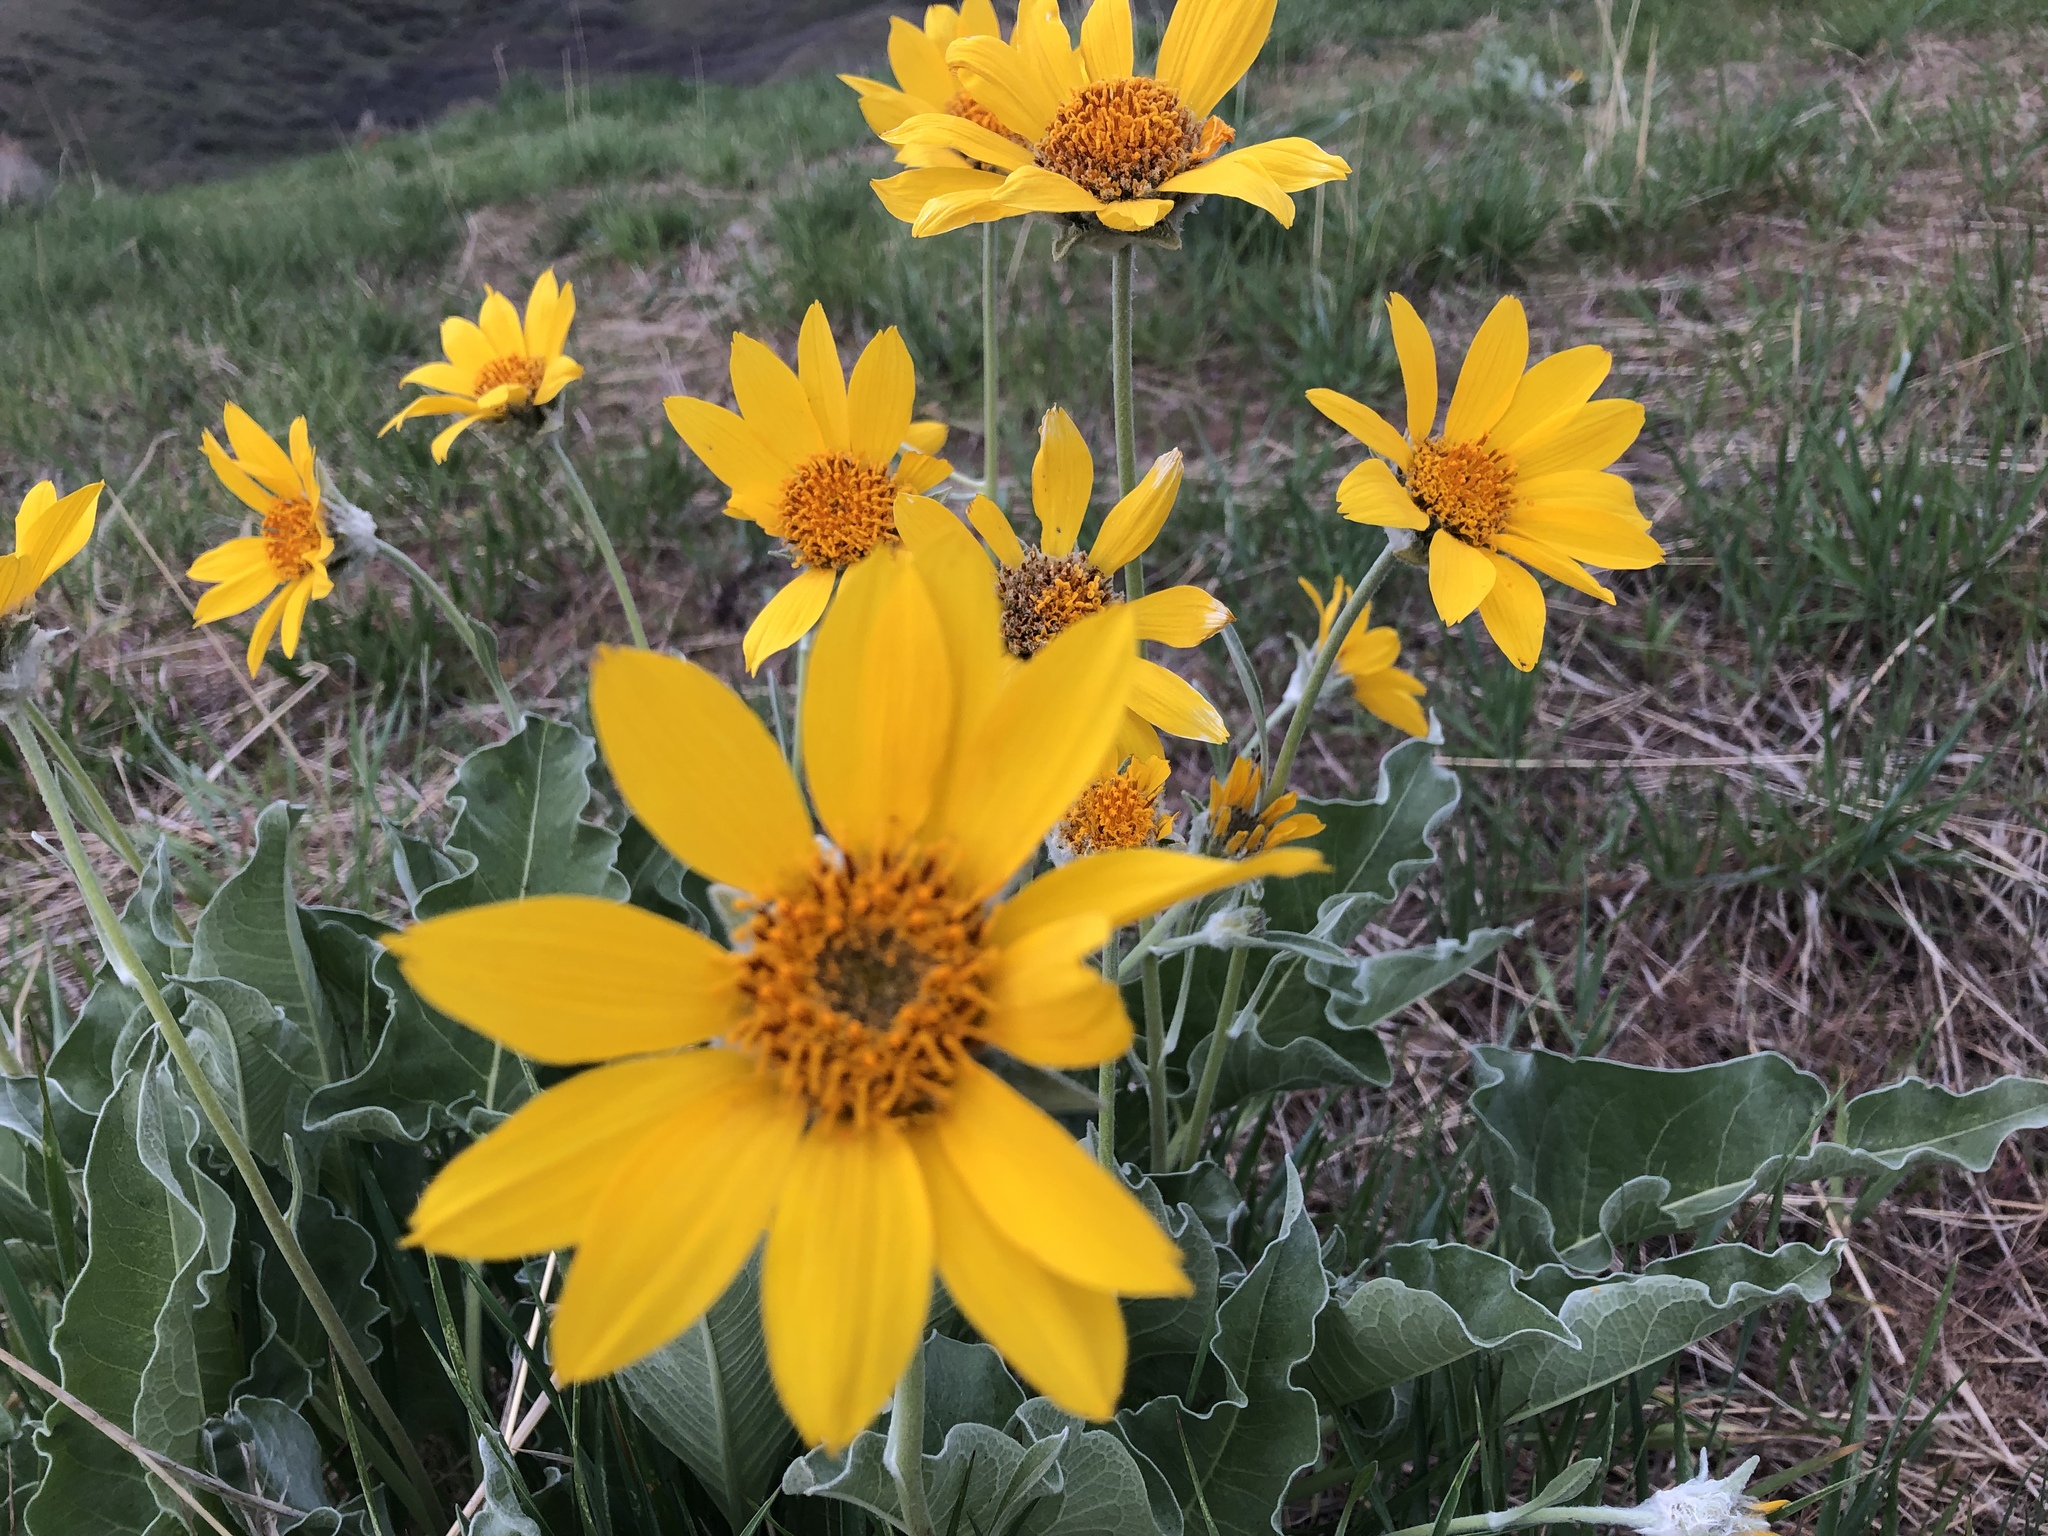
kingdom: Plantae
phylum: Tracheophyta
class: Magnoliopsida
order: Asterales
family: Asteraceae
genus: Wyethia
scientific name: Wyethia sagittata
